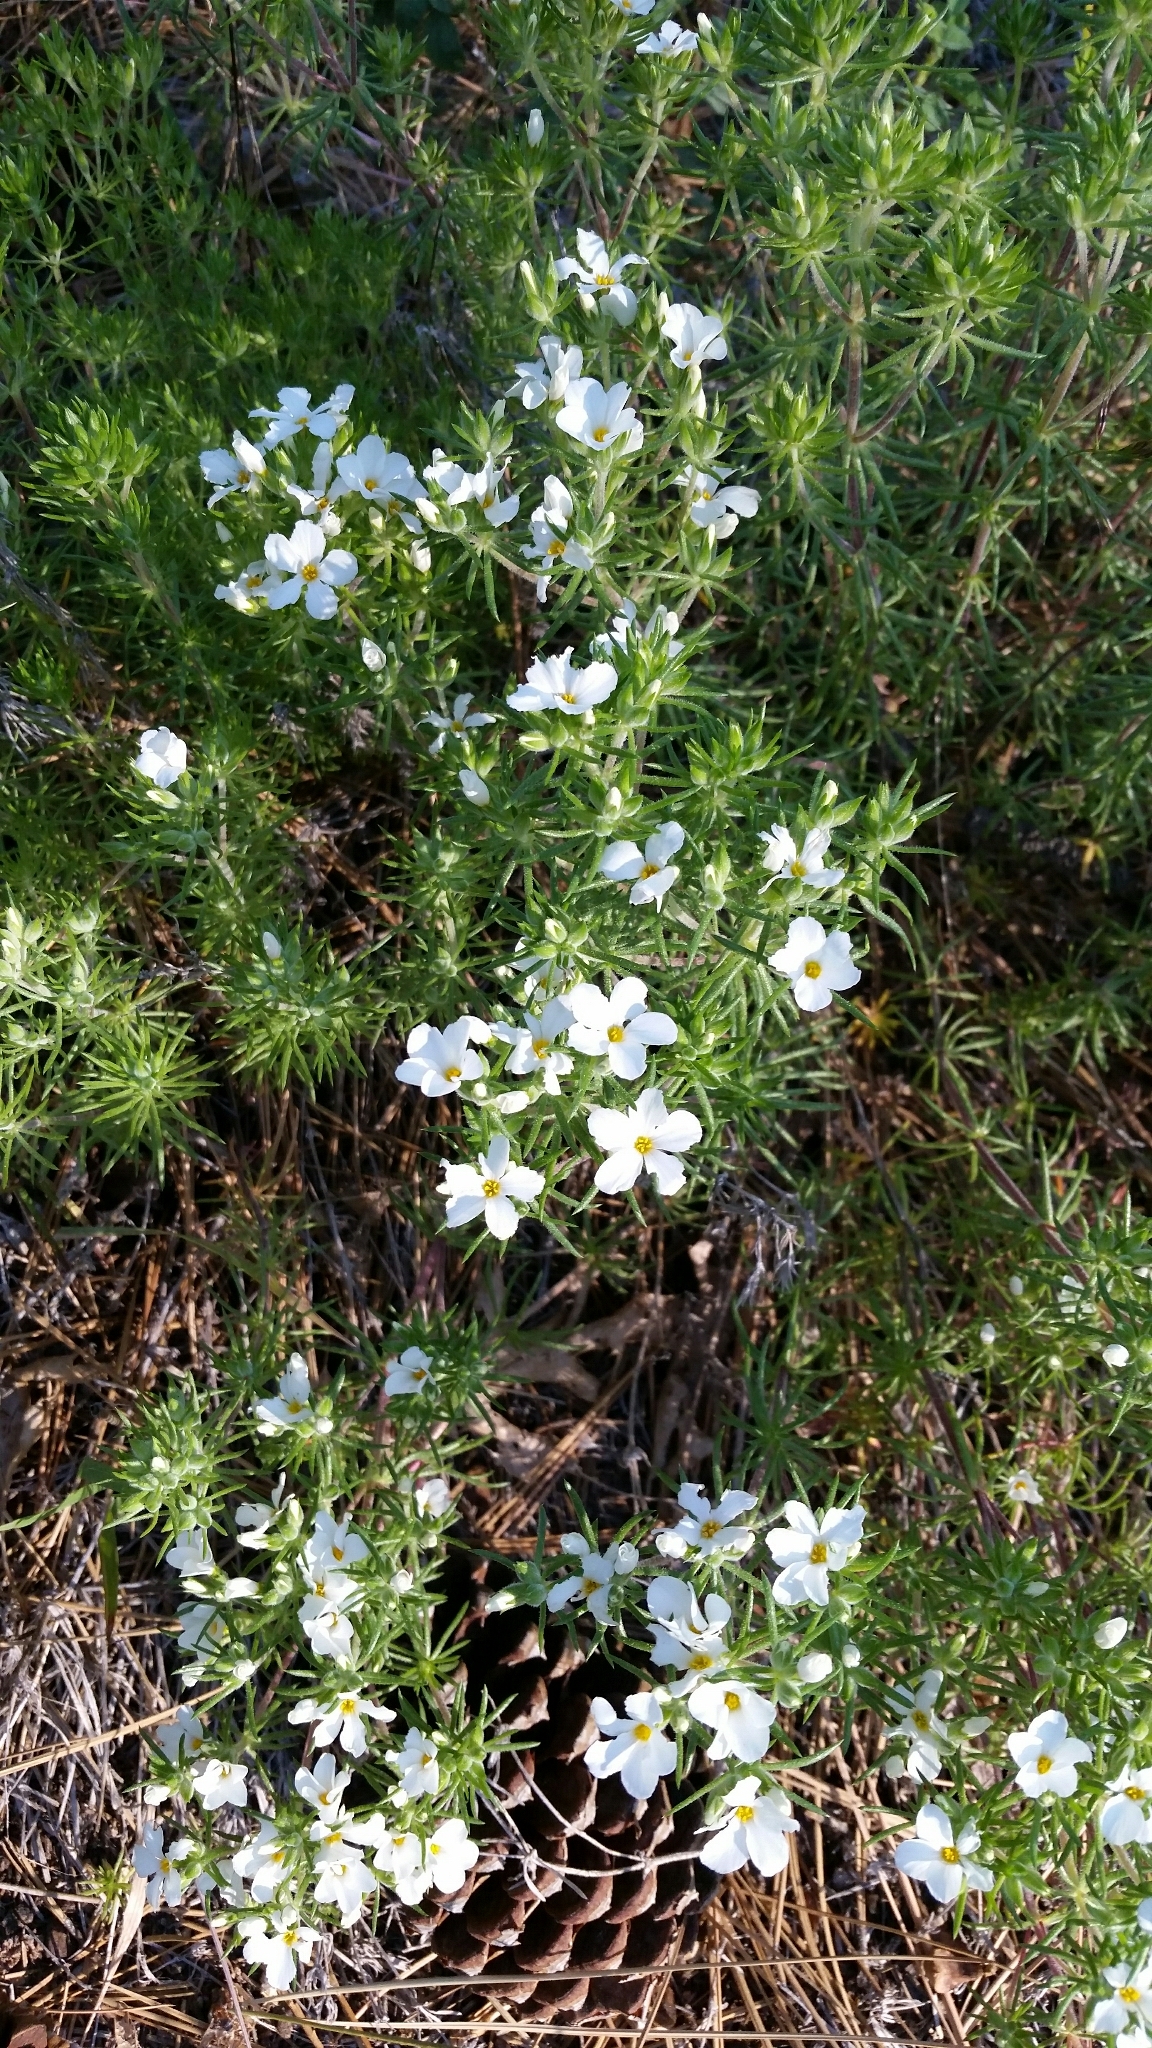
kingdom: Plantae
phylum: Tracheophyta
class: Magnoliopsida
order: Ericales
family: Polemoniaceae
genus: Leptosiphon
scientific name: Leptosiphon floribundum
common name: Many-flower linanthus
